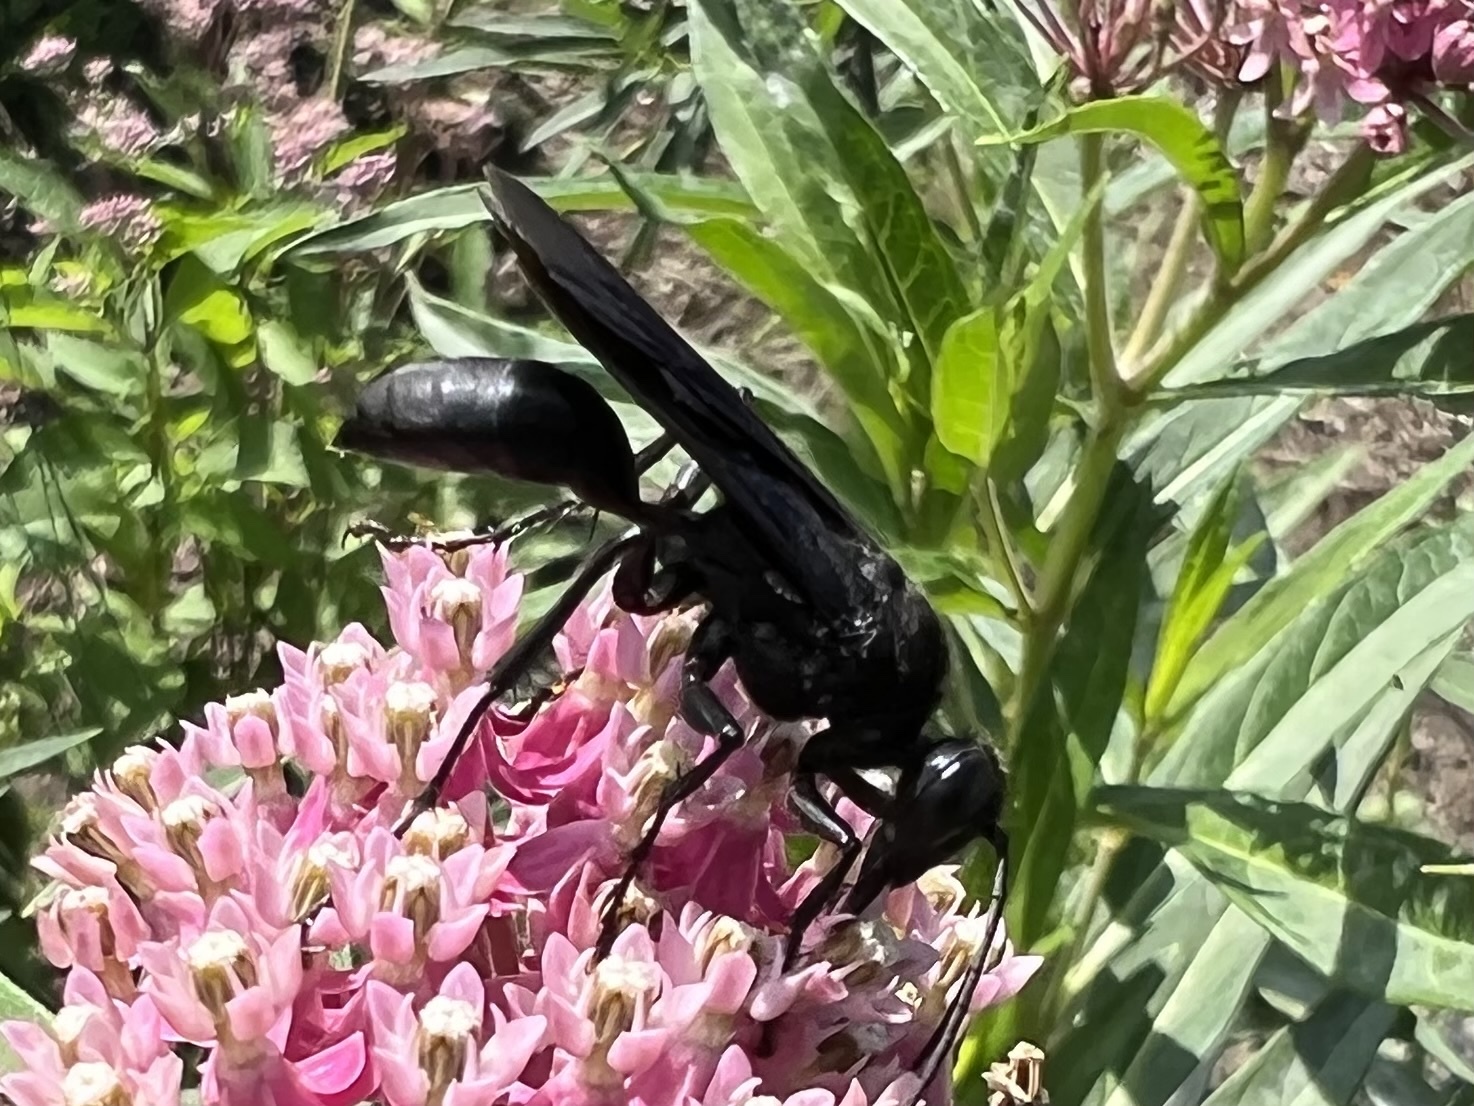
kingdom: Animalia
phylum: Arthropoda
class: Insecta
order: Hymenoptera
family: Sphecidae
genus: Sphex
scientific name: Sphex pensylvanicus
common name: Great black digger wasp
